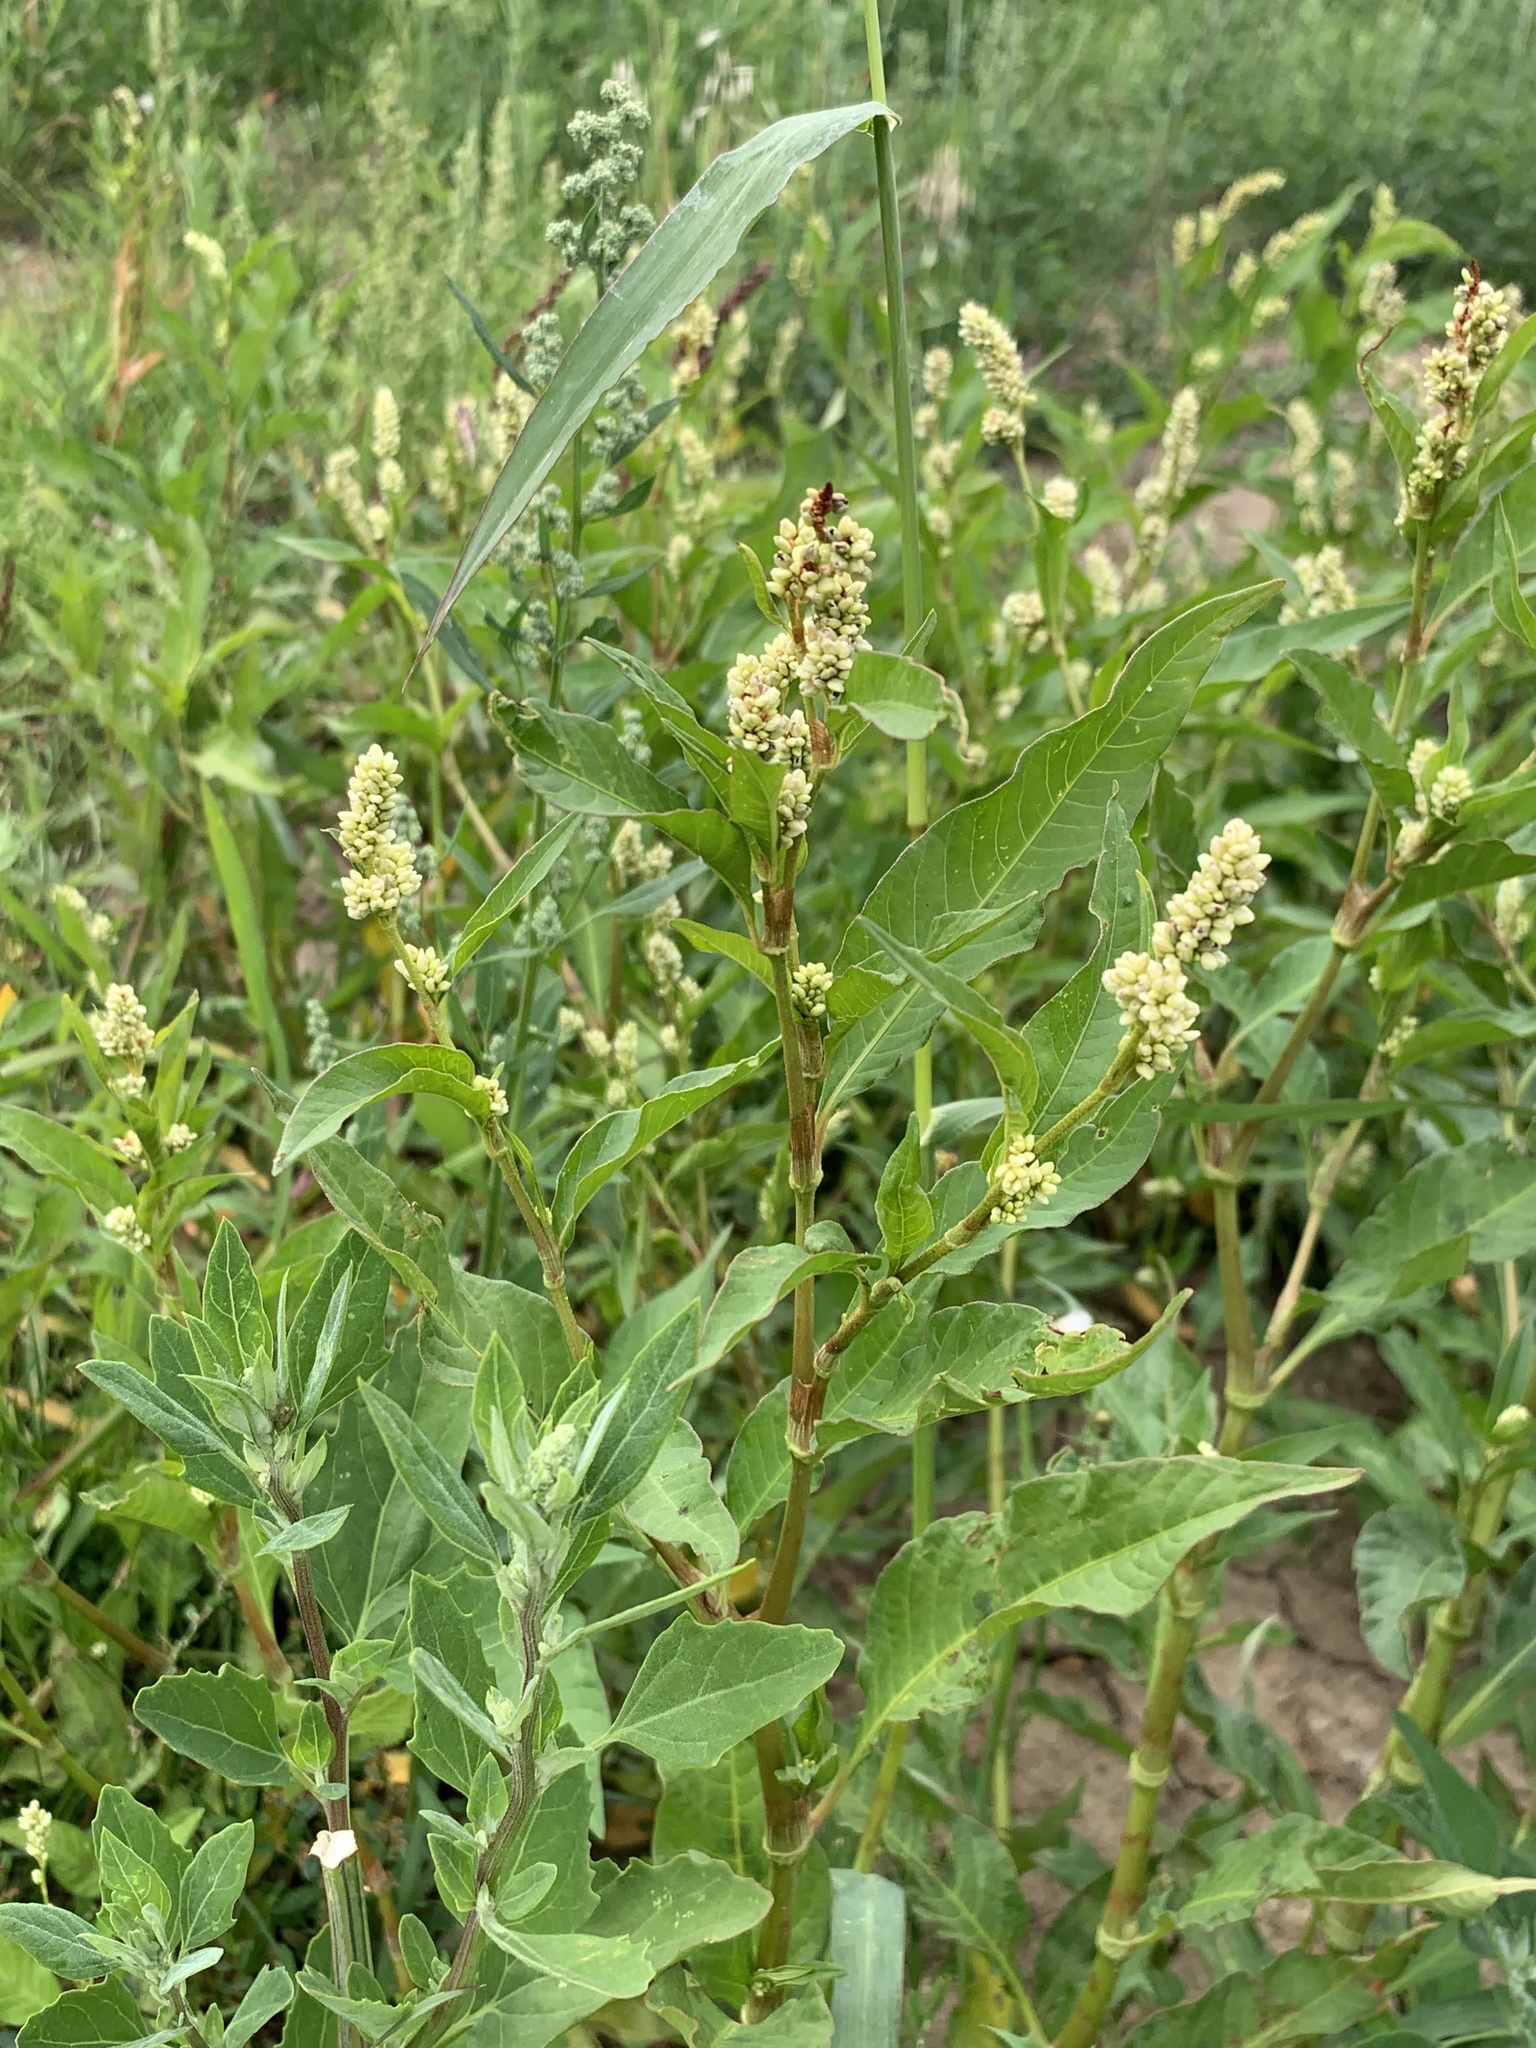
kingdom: Plantae
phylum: Tracheophyta
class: Magnoliopsida
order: Caryophyllales
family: Polygonaceae
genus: Persicaria
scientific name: Persicaria lapathifolia
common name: Curlytop knotweed
